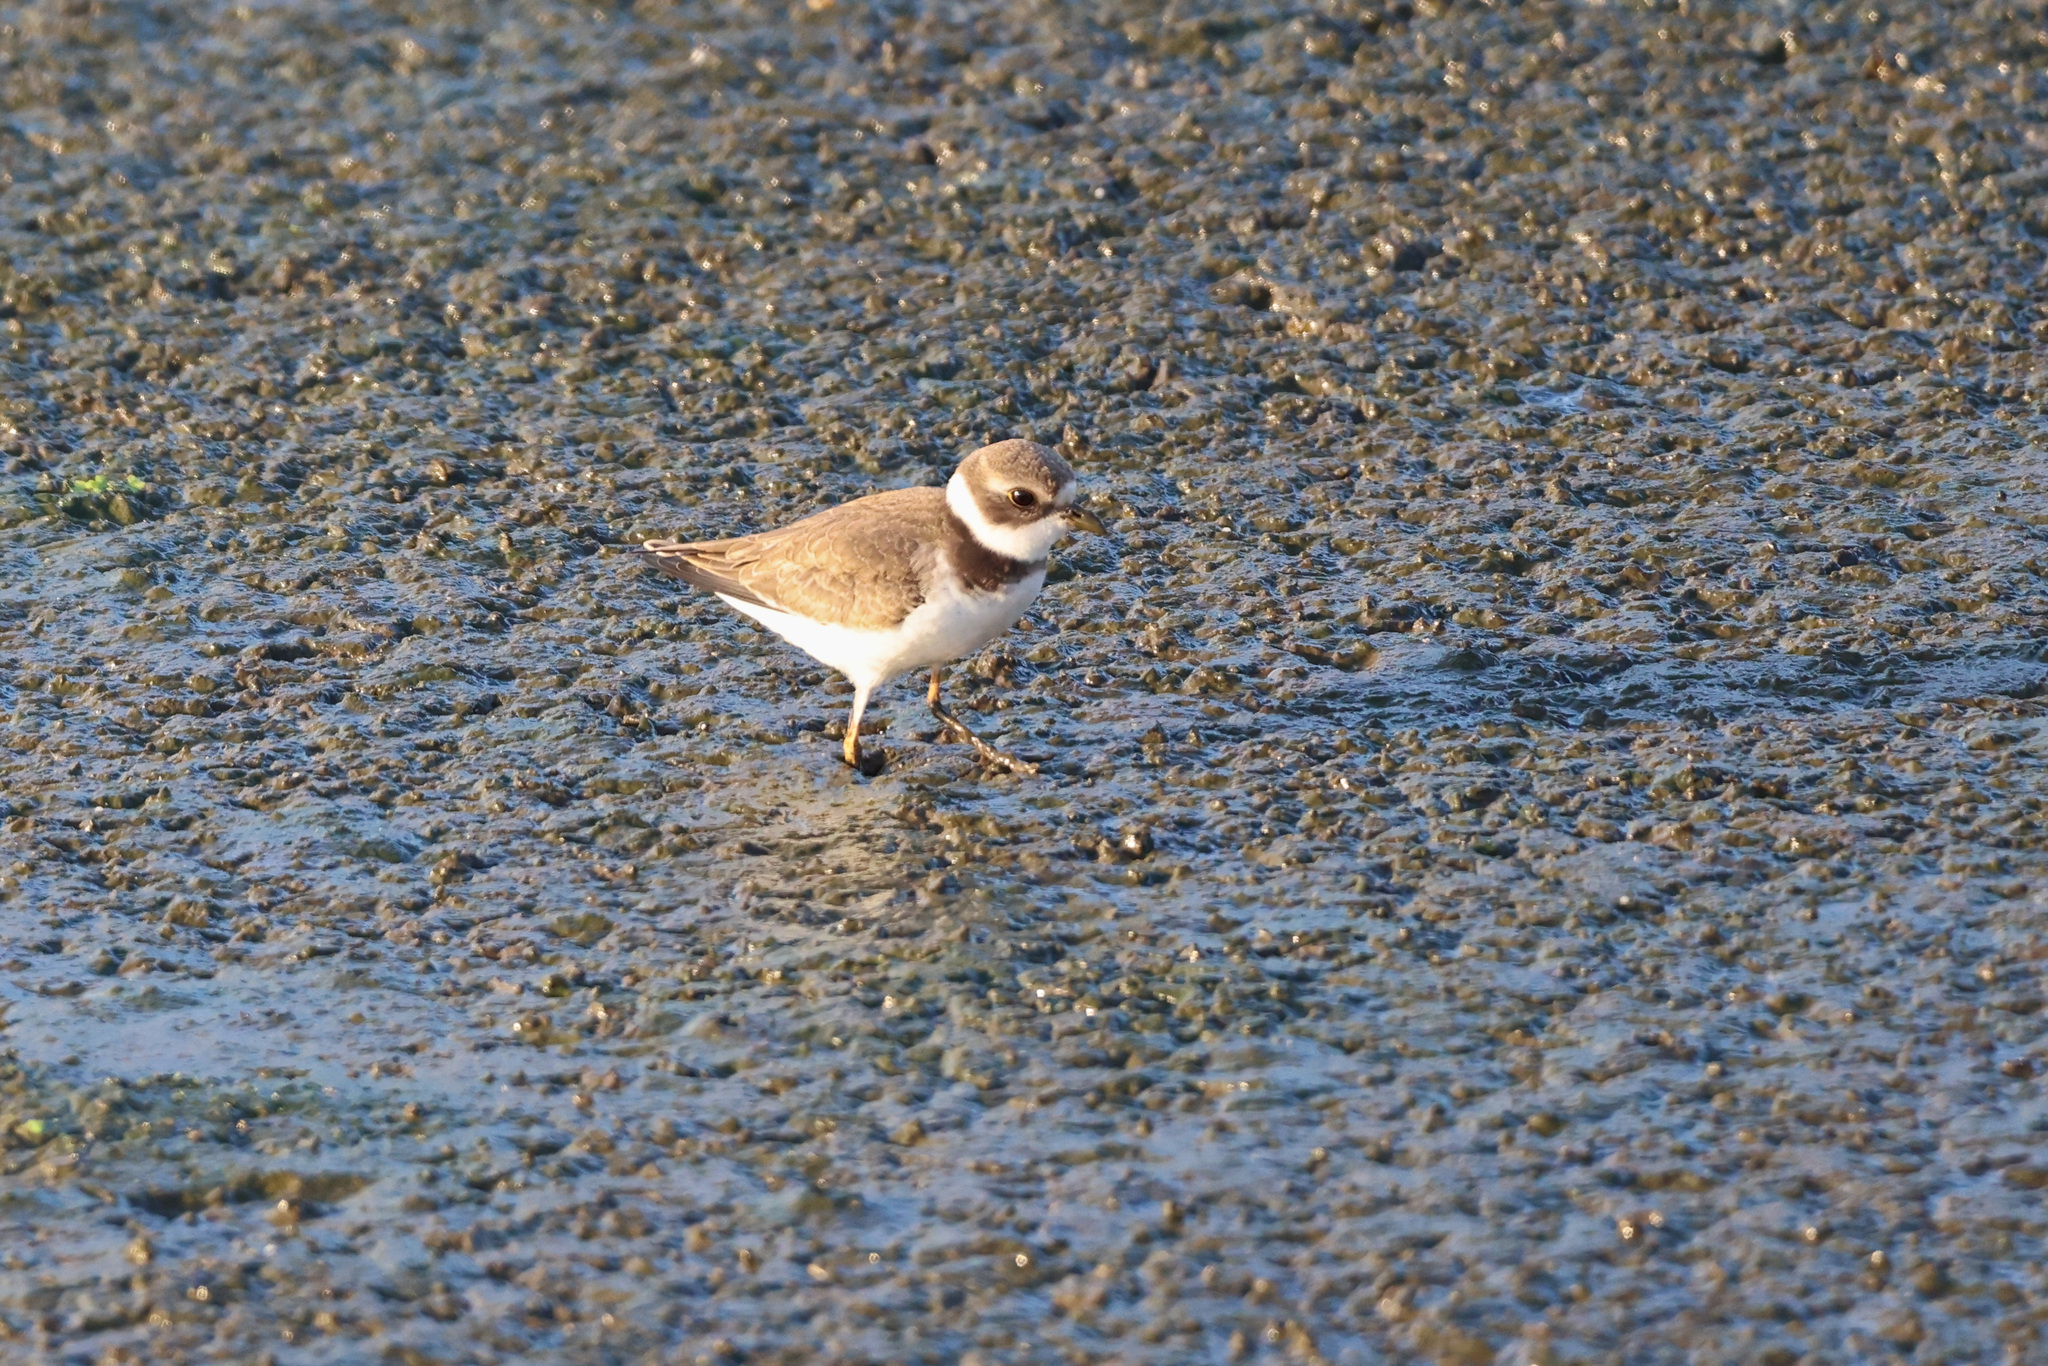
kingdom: Animalia
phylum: Chordata
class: Aves
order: Charadriiformes
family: Charadriidae
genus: Charadrius
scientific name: Charadrius semipalmatus
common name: Semipalmated plover
